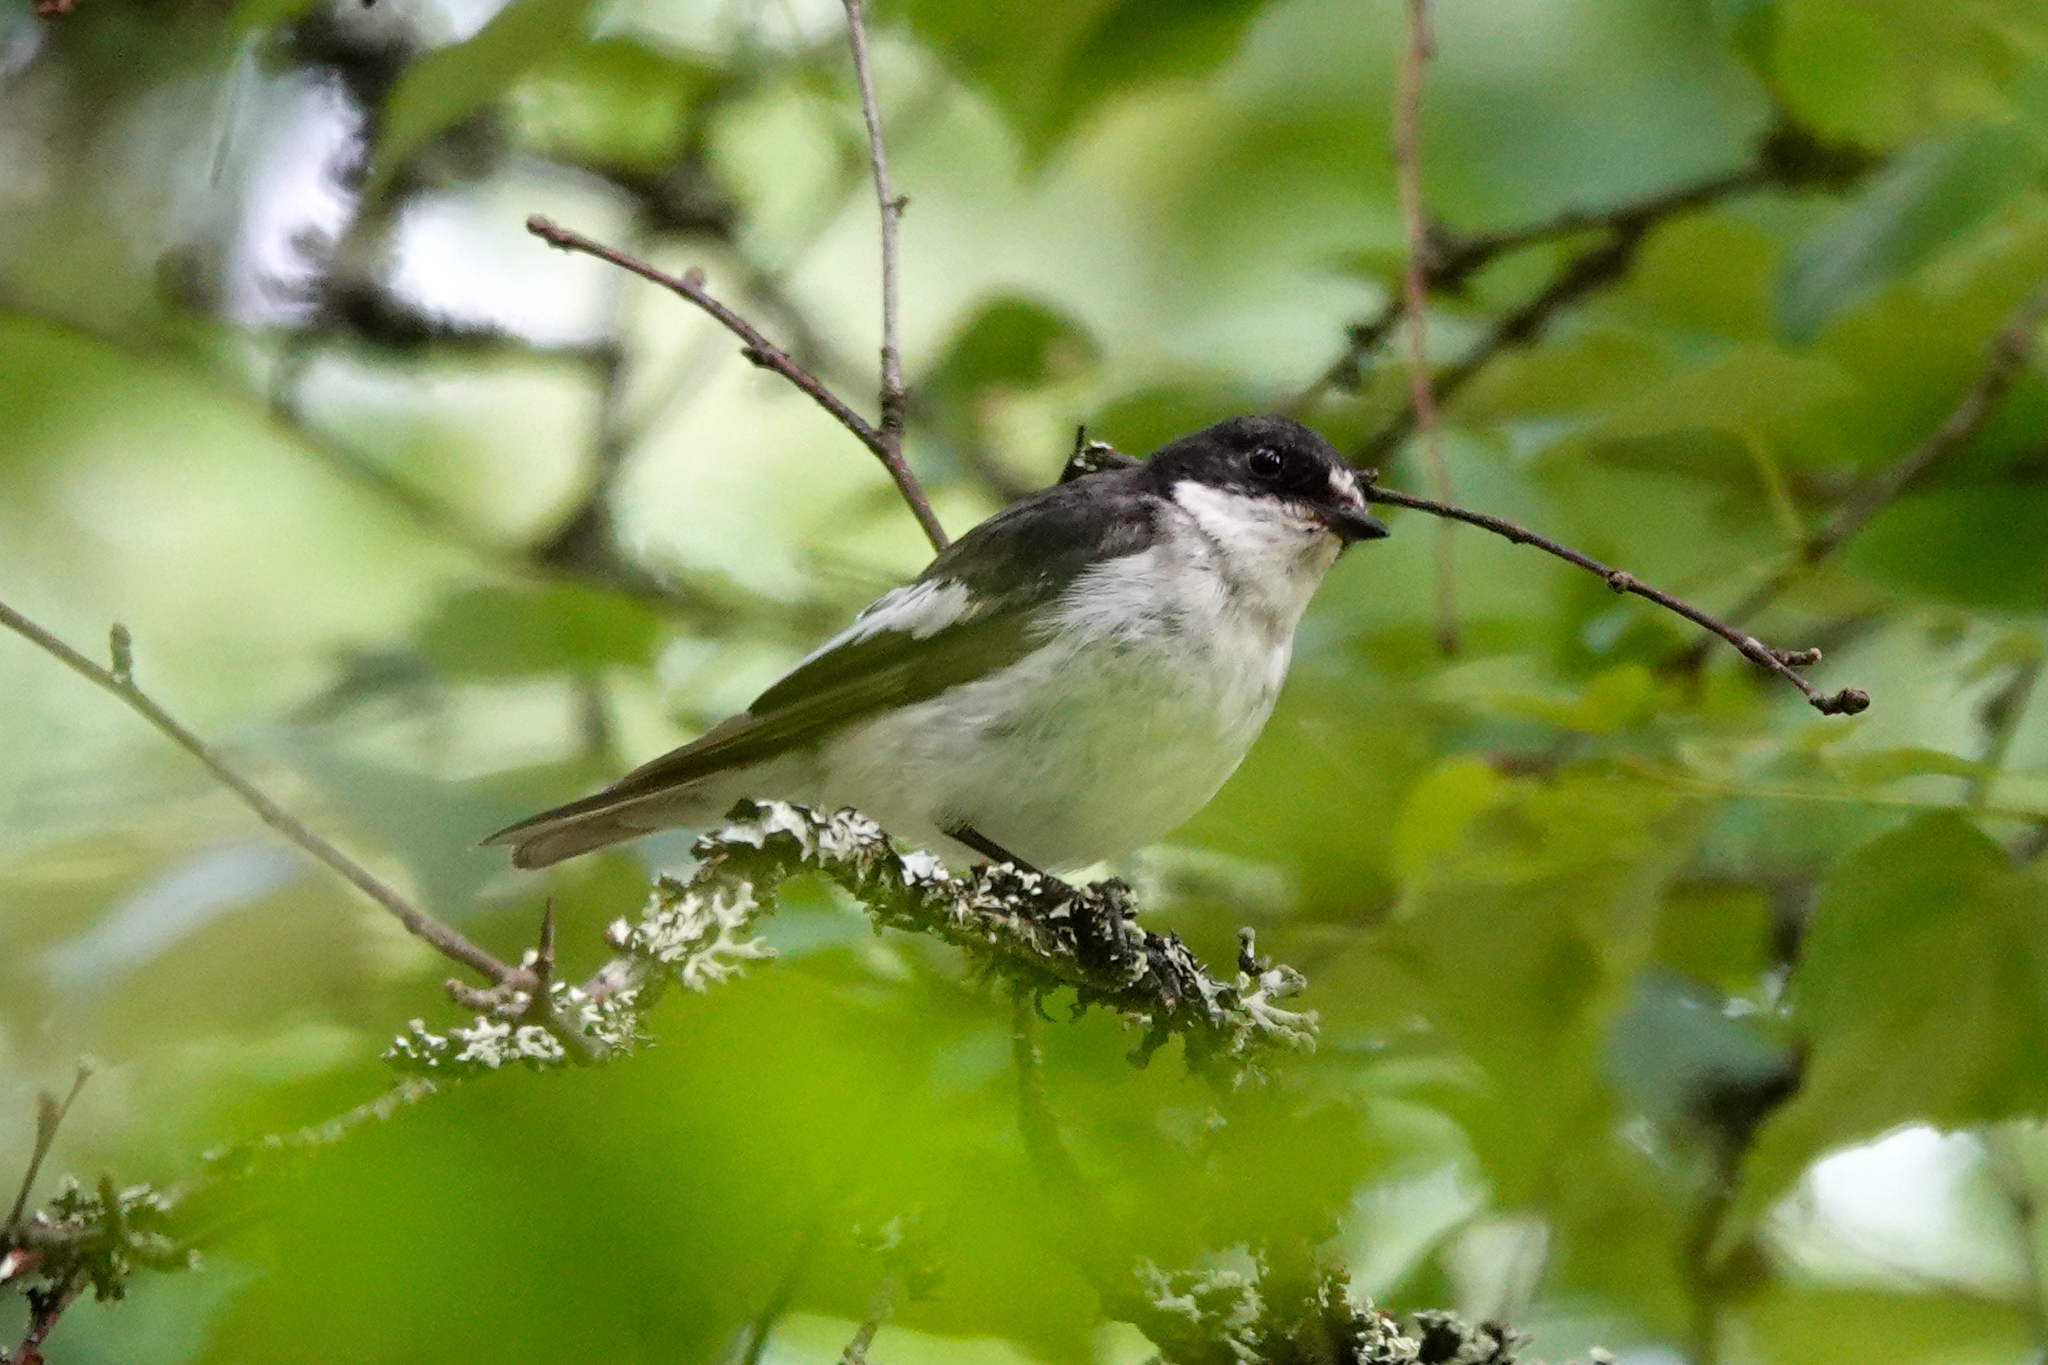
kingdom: Animalia
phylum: Chordata
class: Aves
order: Passeriformes
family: Muscicapidae
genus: Ficedula
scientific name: Ficedula hypoleuca
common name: European pied flycatcher
